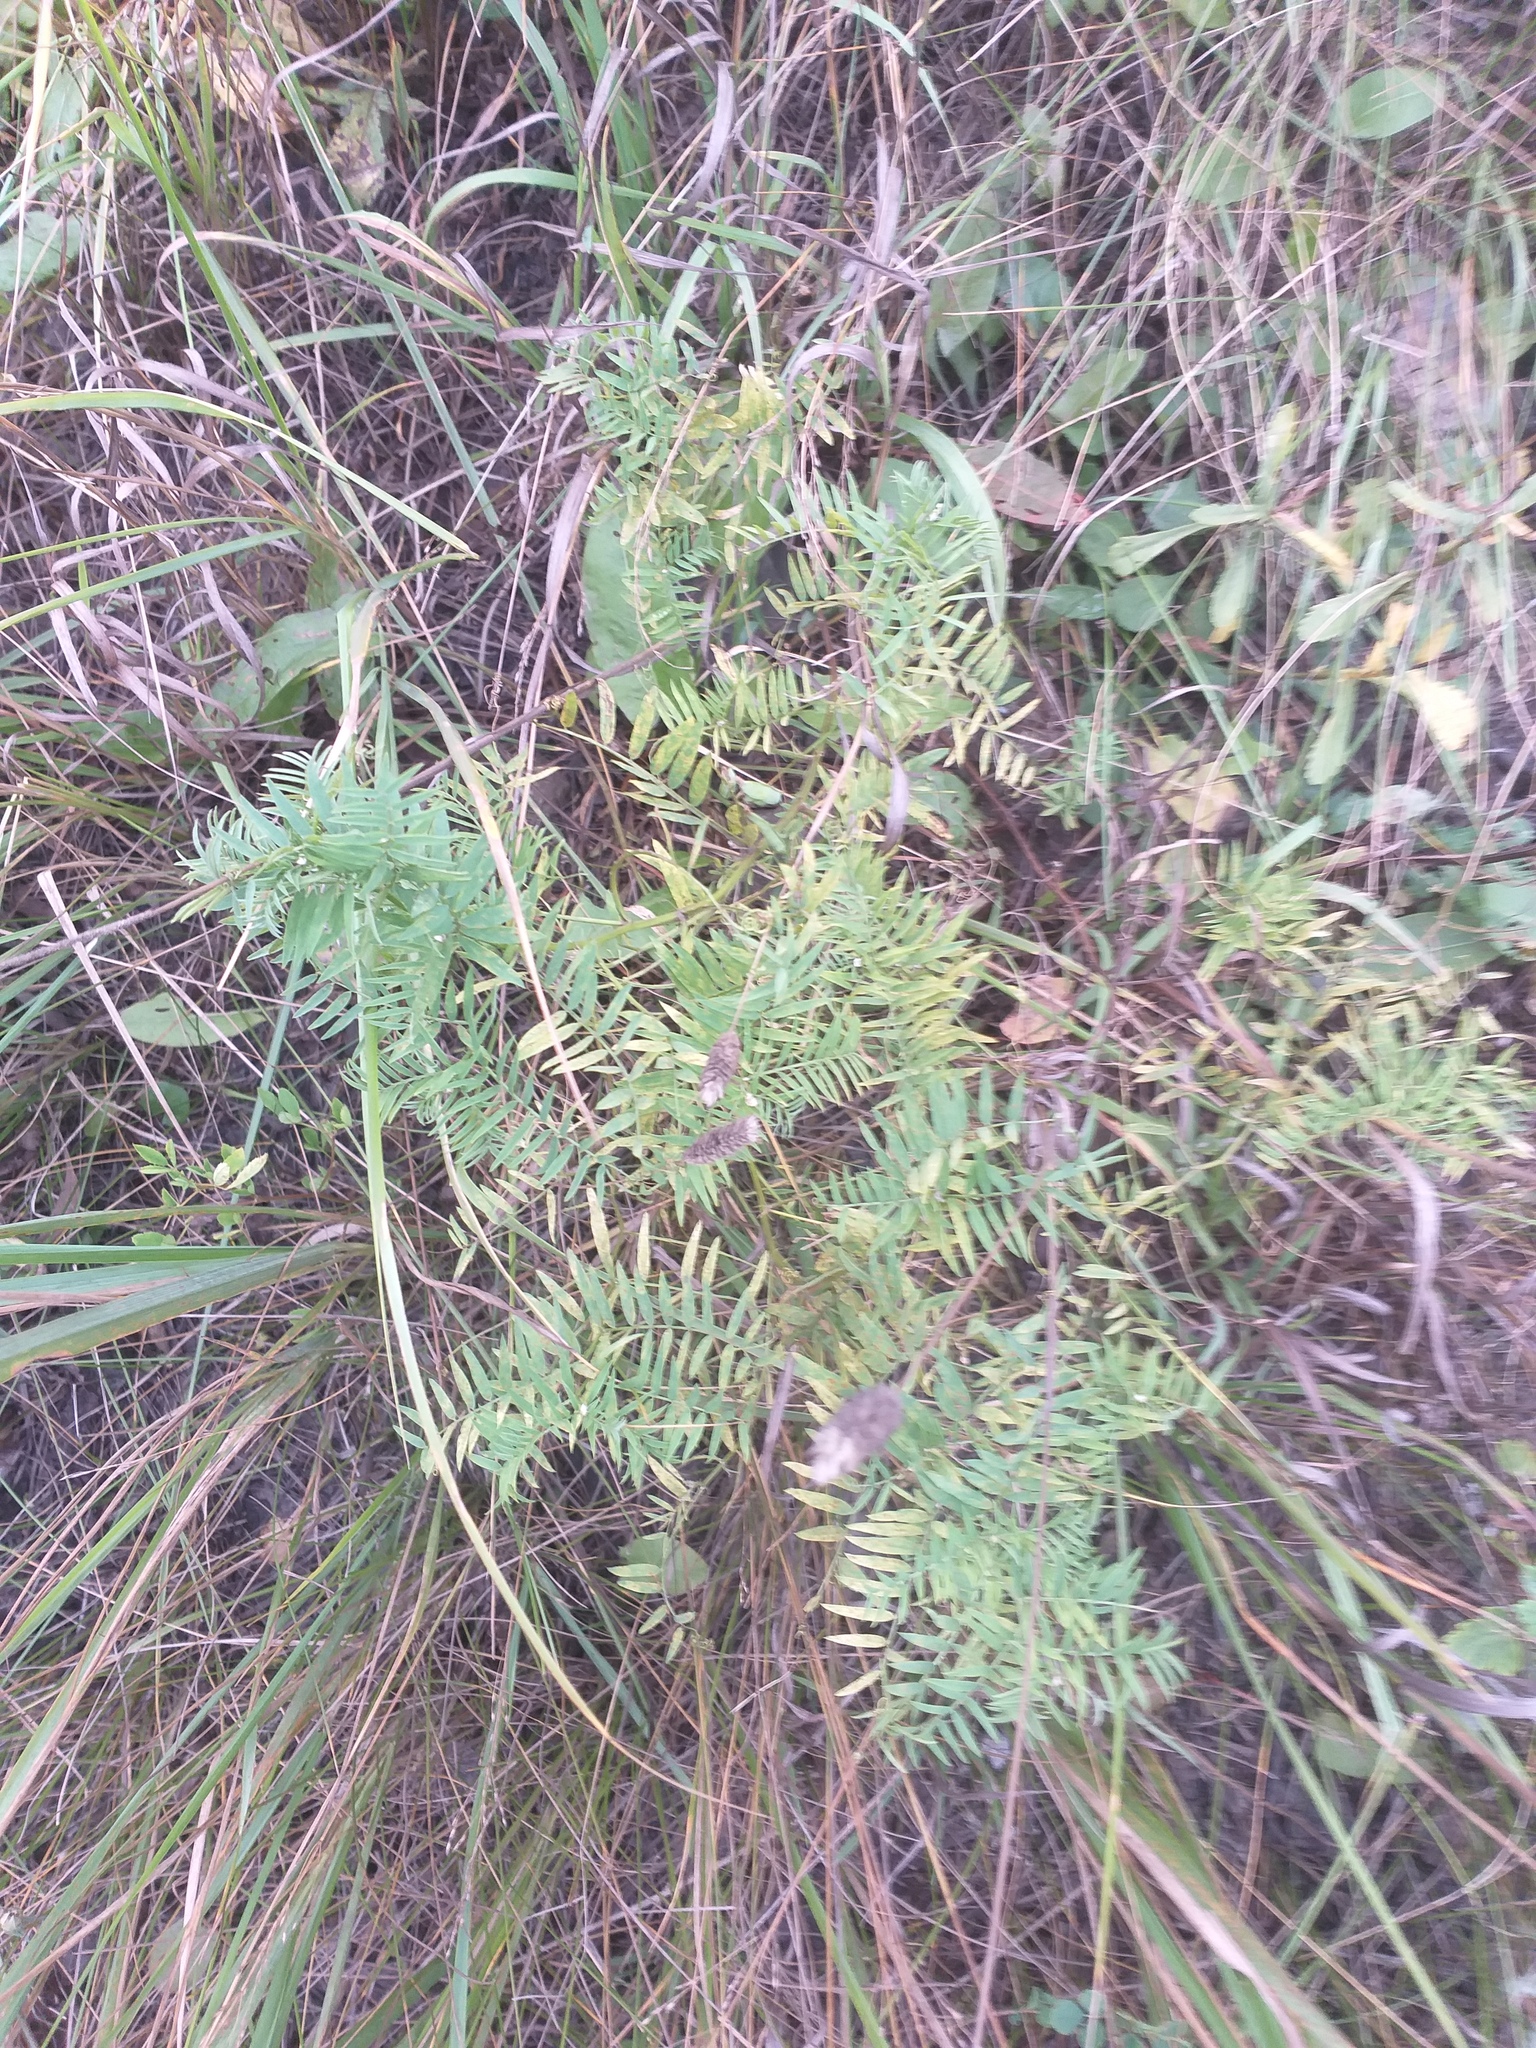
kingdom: Plantae
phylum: Tracheophyta
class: Magnoliopsida
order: Fabales
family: Fabaceae
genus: Vicia
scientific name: Vicia megalotropis
